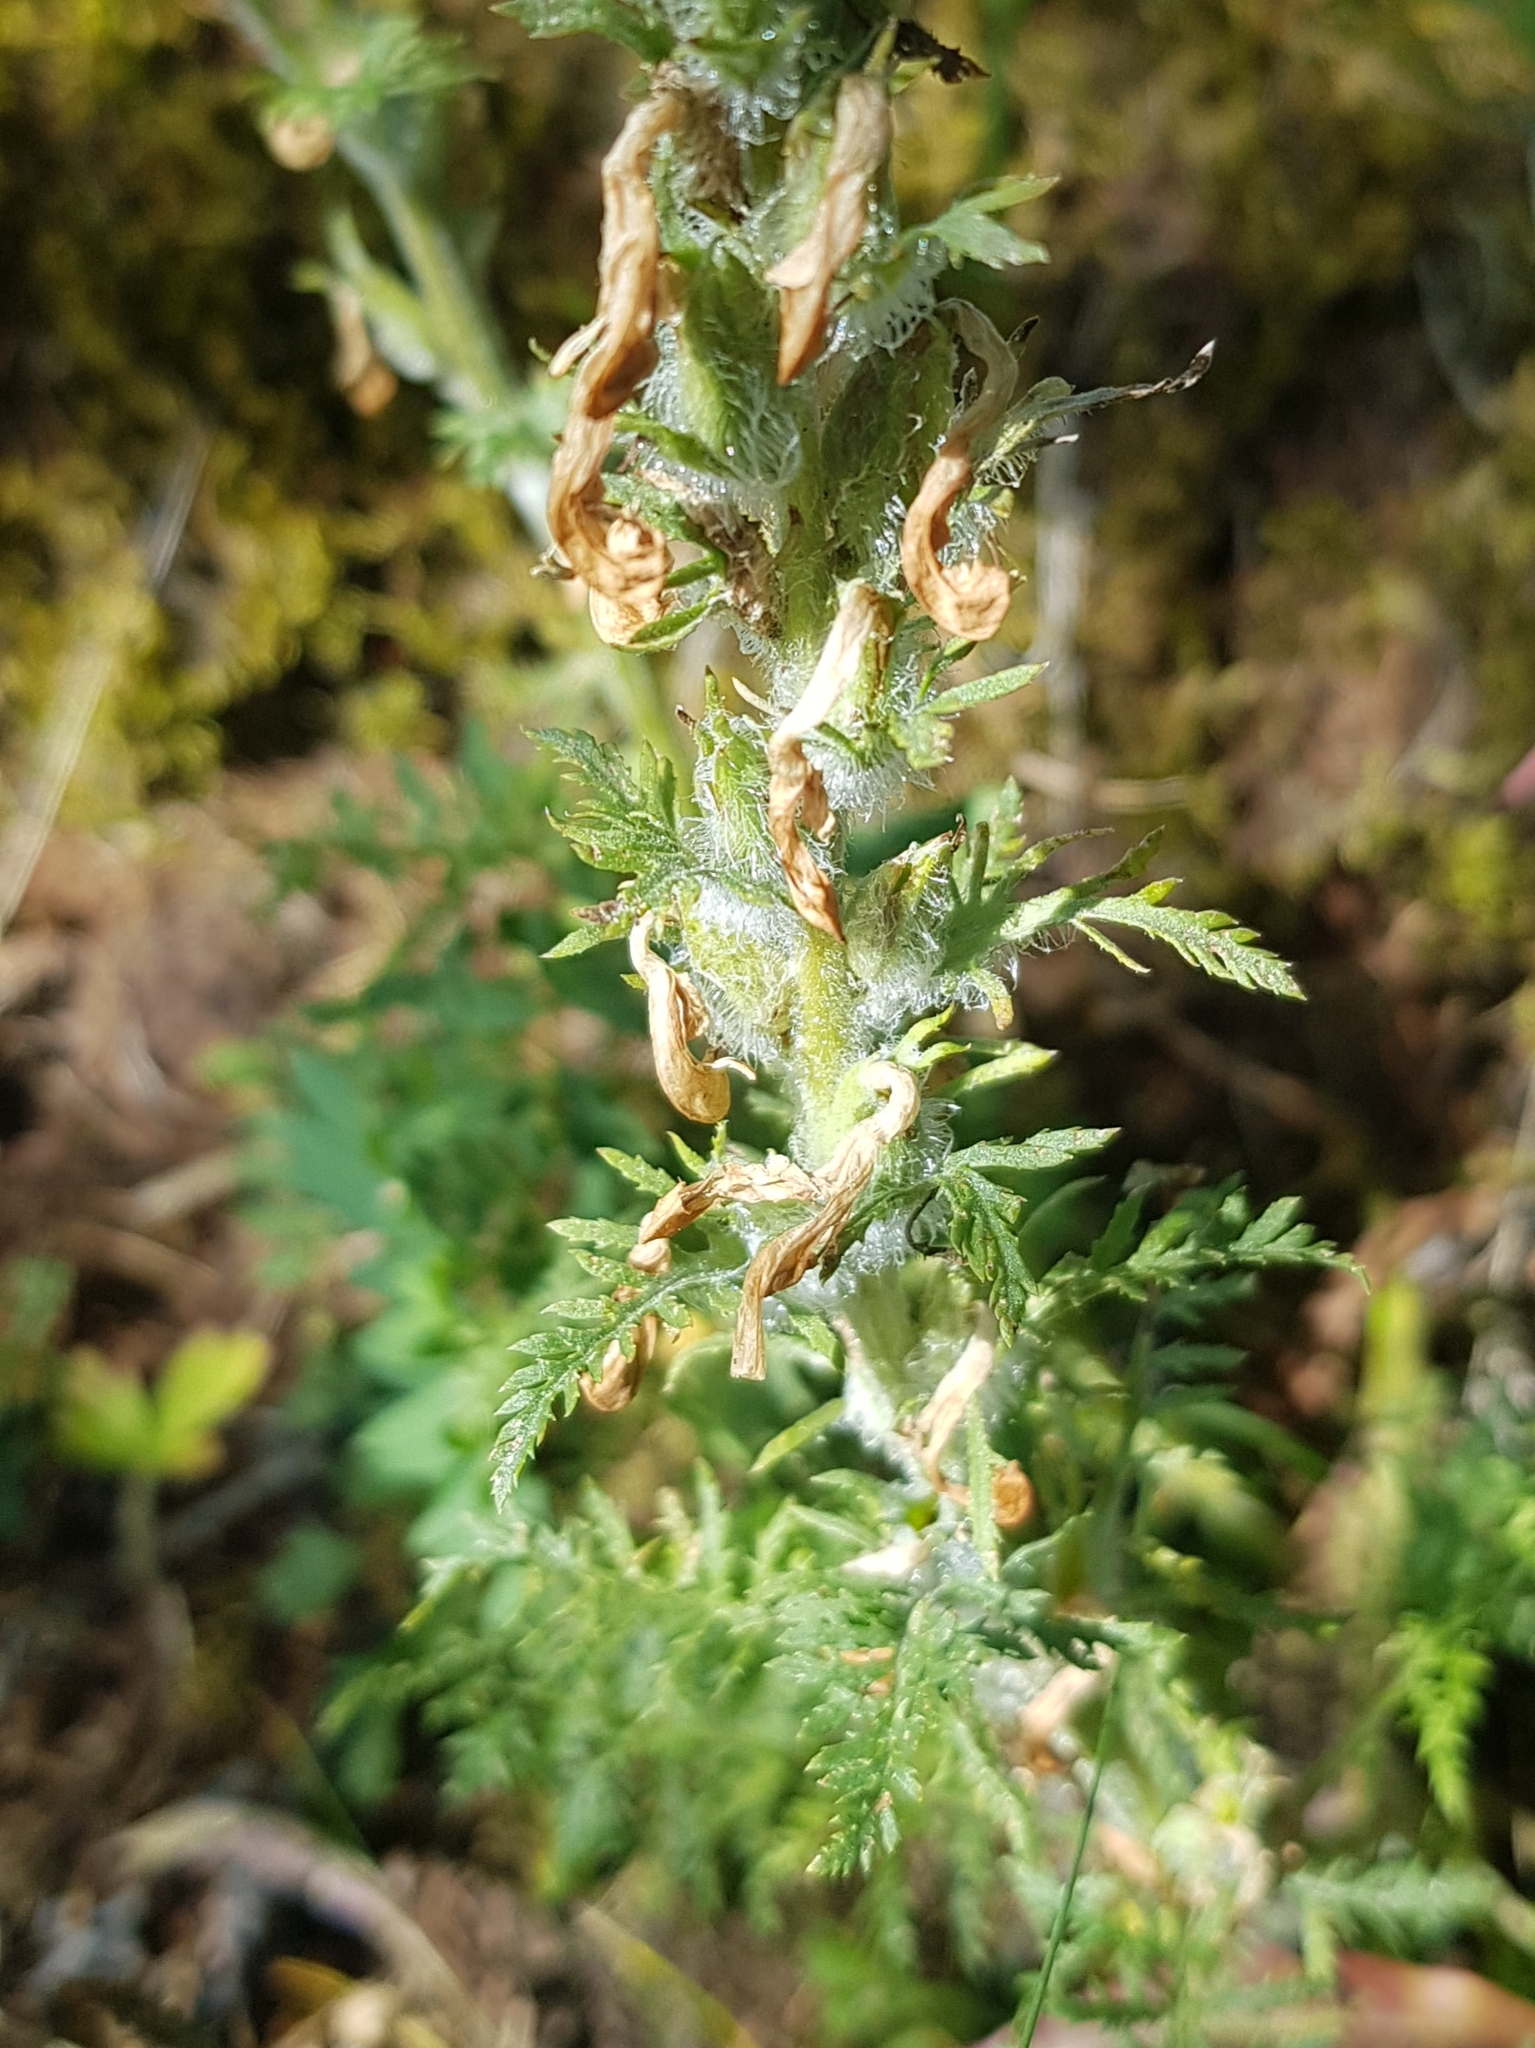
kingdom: Plantae
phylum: Tracheophyta
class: Magnoliopsida
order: Lamiales
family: Orobanchaceae
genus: Pedicularis
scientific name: Pedicularis rubens
